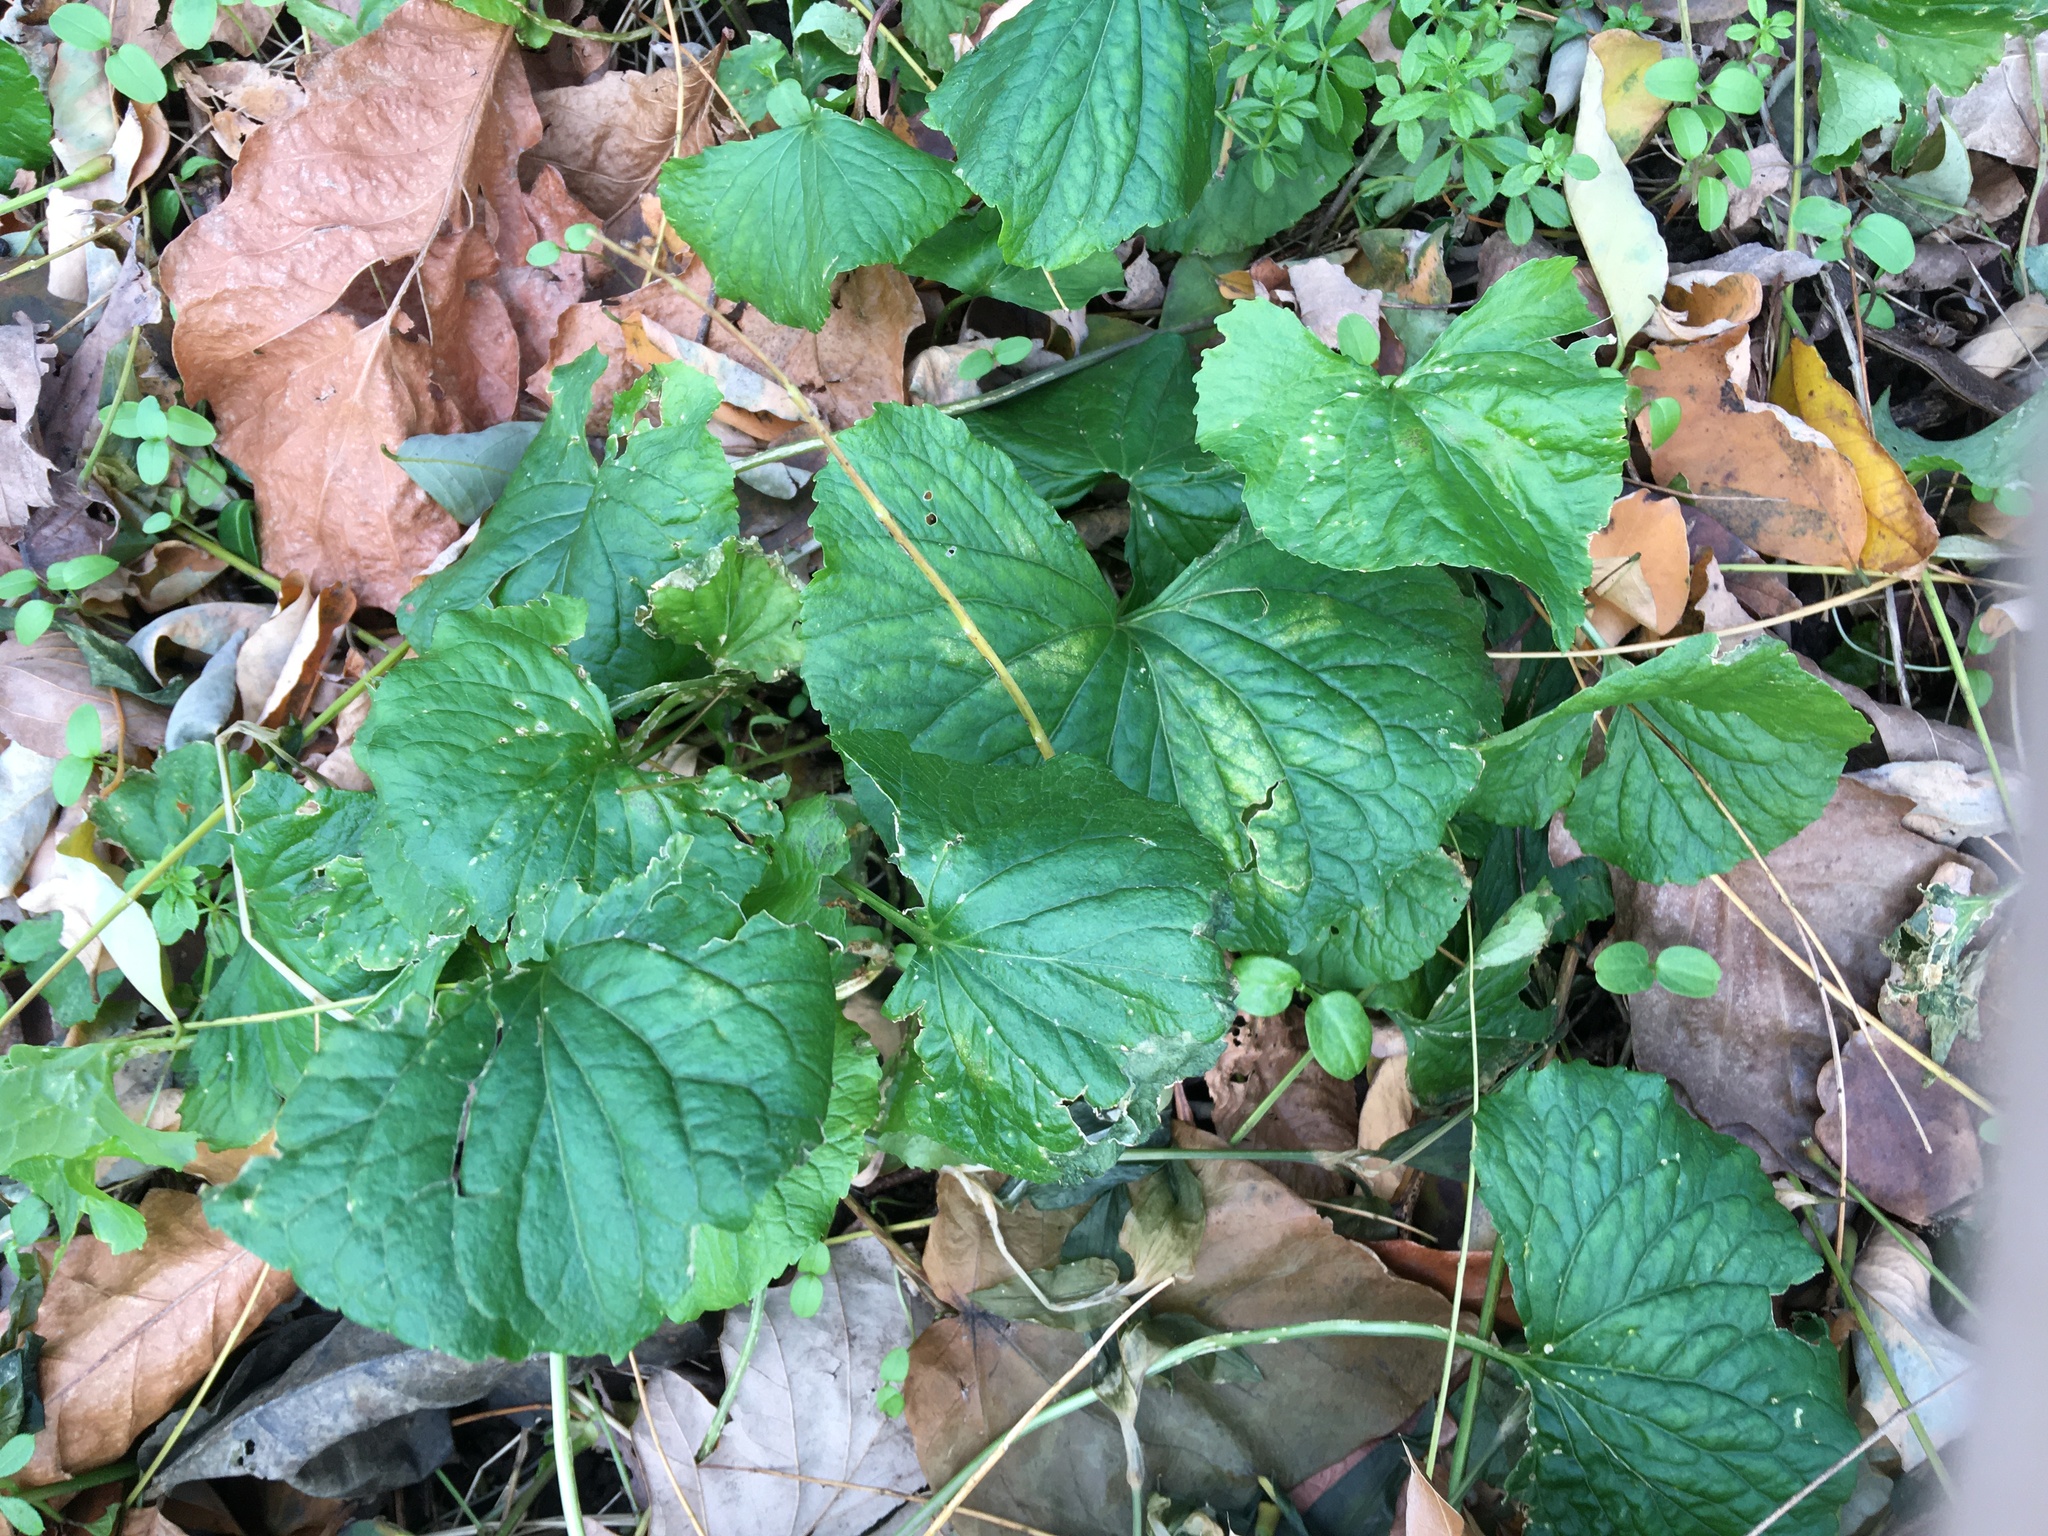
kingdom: Plantae
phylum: Tracheophyta
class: Magnoliopsida
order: Malpighiales
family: Violaceae
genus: Viola
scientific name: Viola sororia
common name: Dooryard violet
